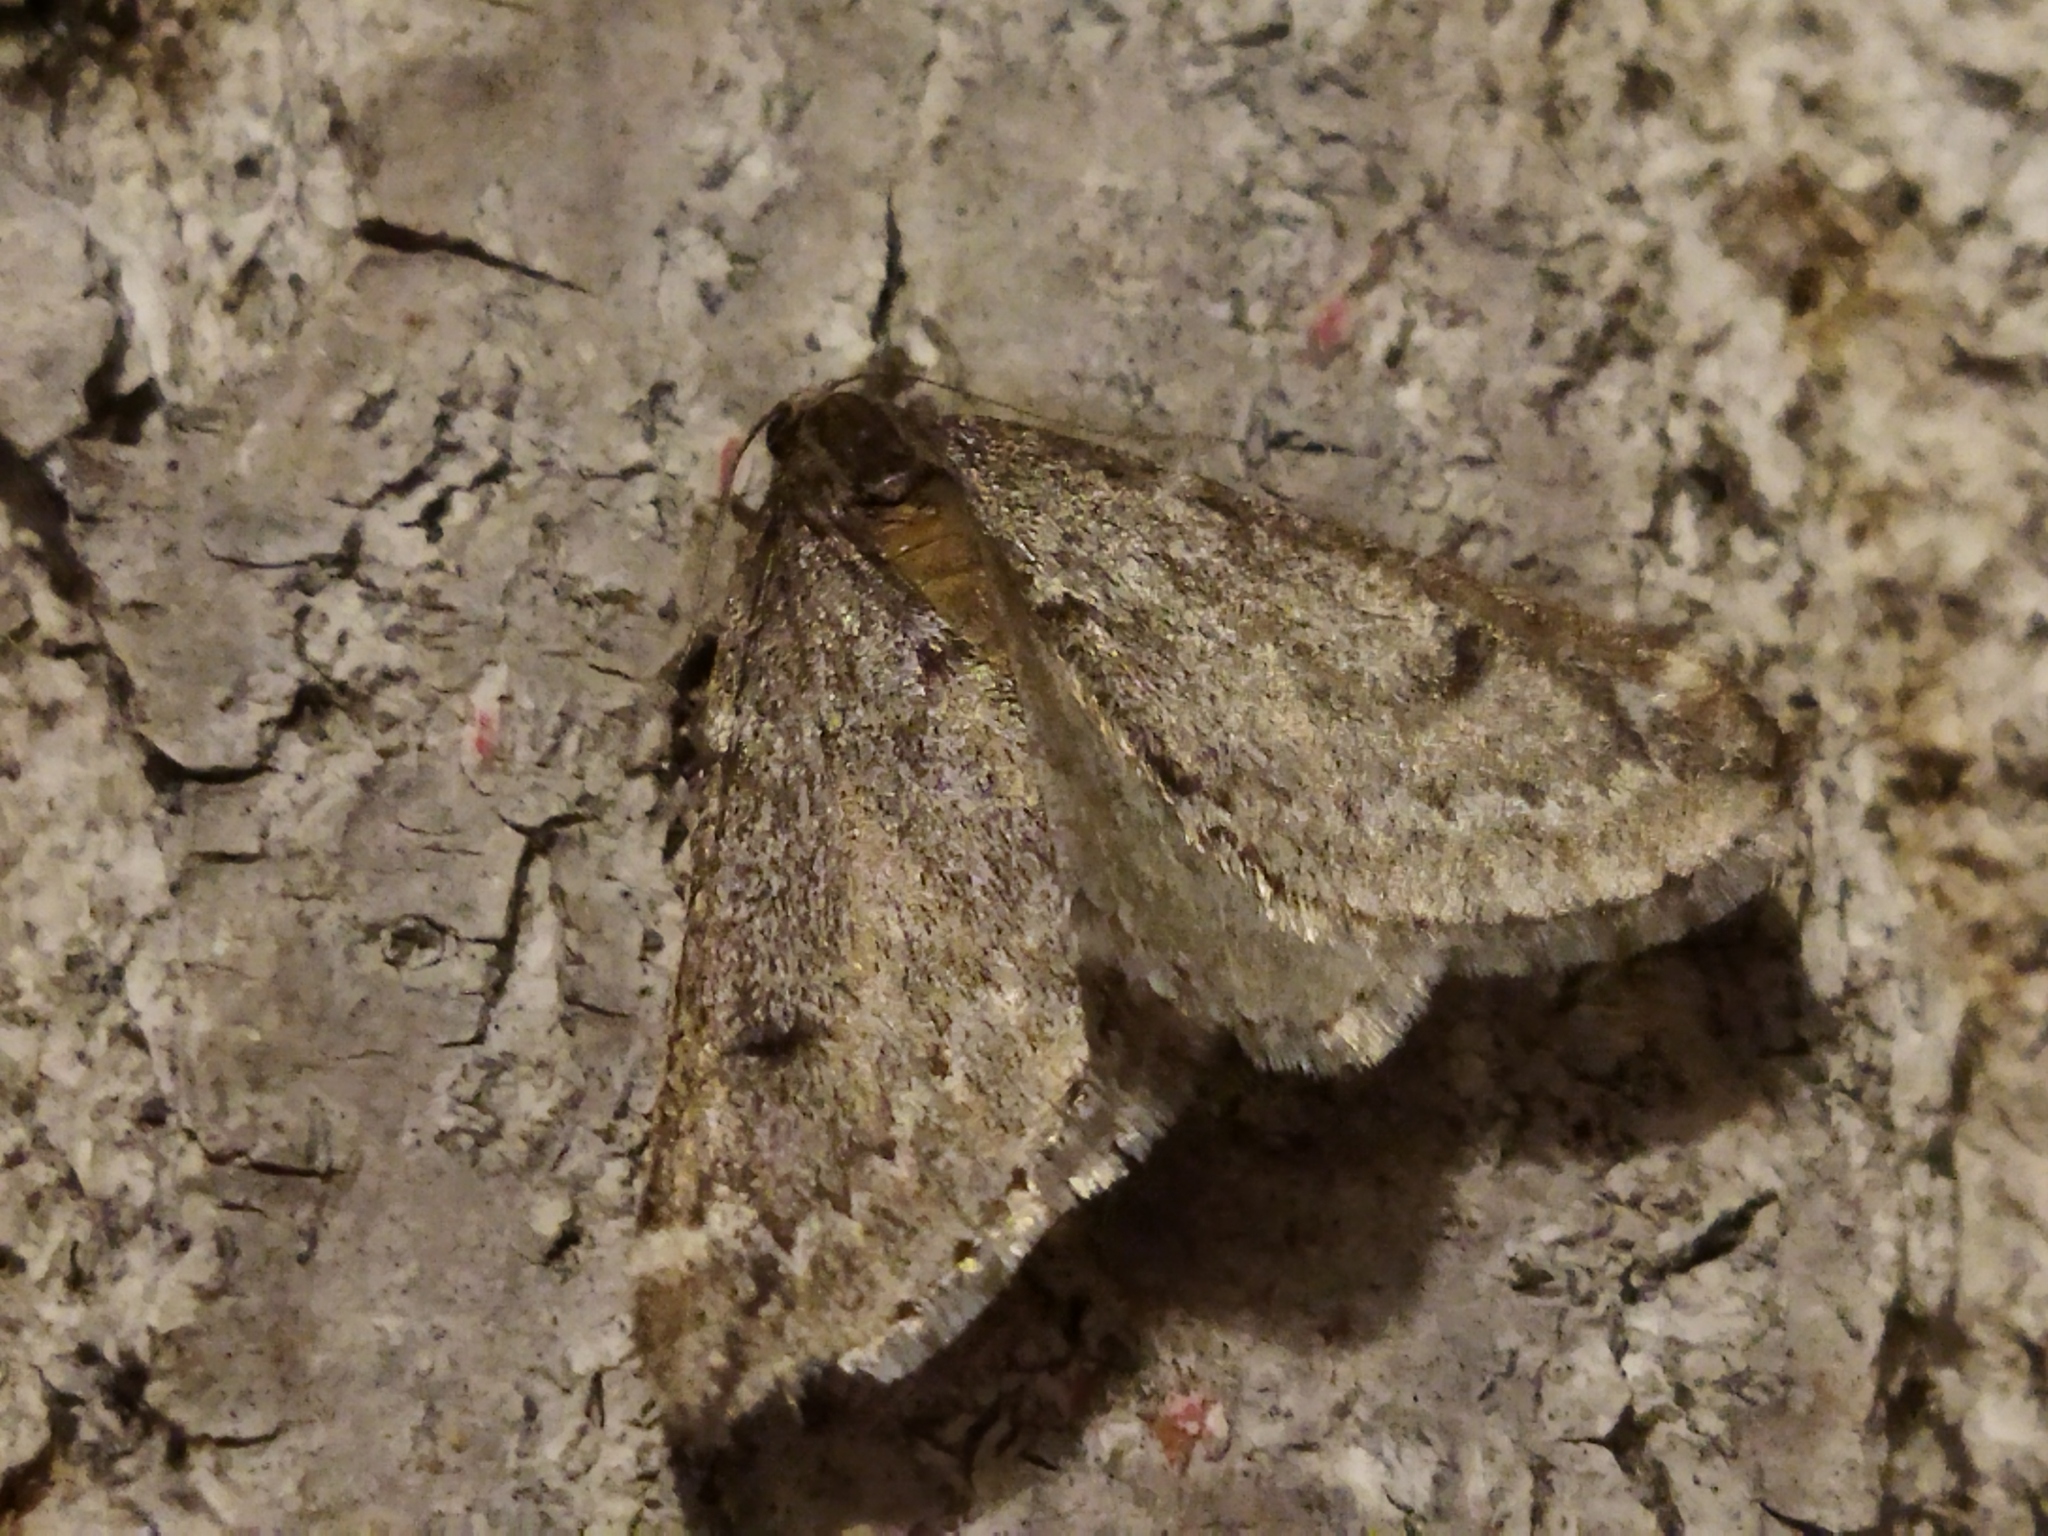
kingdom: Animalia
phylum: Arthropoda
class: Insecta
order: Lepidoptera
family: Geometridae
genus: Alsophila
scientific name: Alsophila aescularia
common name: March moth
